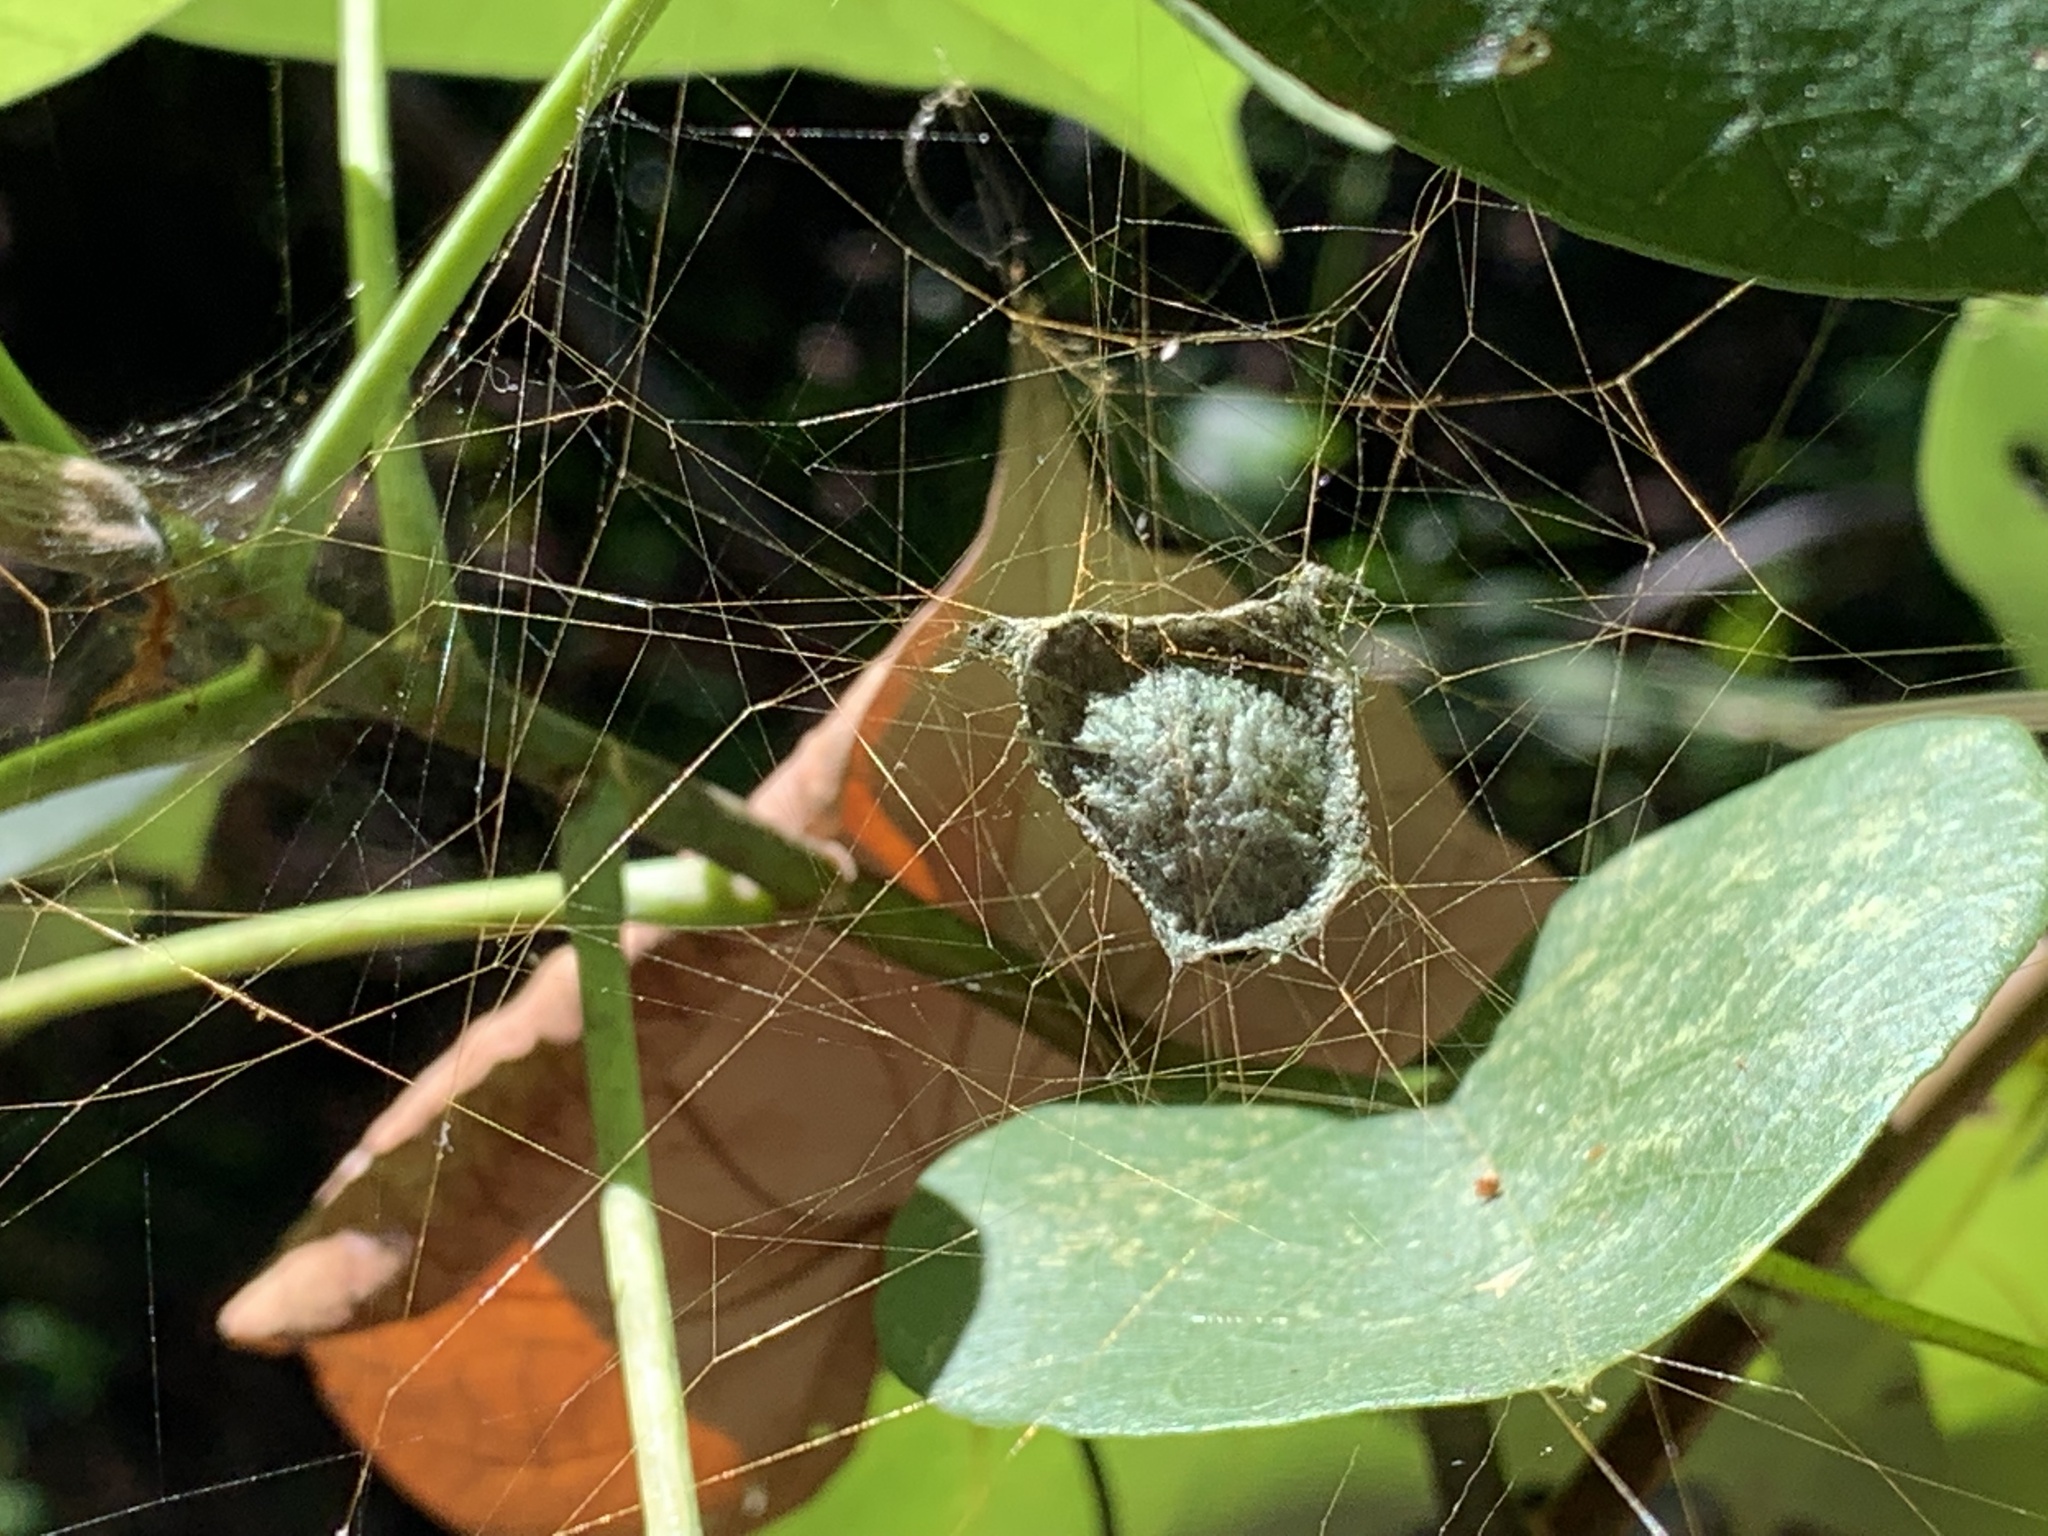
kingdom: Animalia
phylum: Arthropoda
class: Arachnida
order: Araneae
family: Pisauridae
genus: Hygropoda
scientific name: Hygropoda lineata
